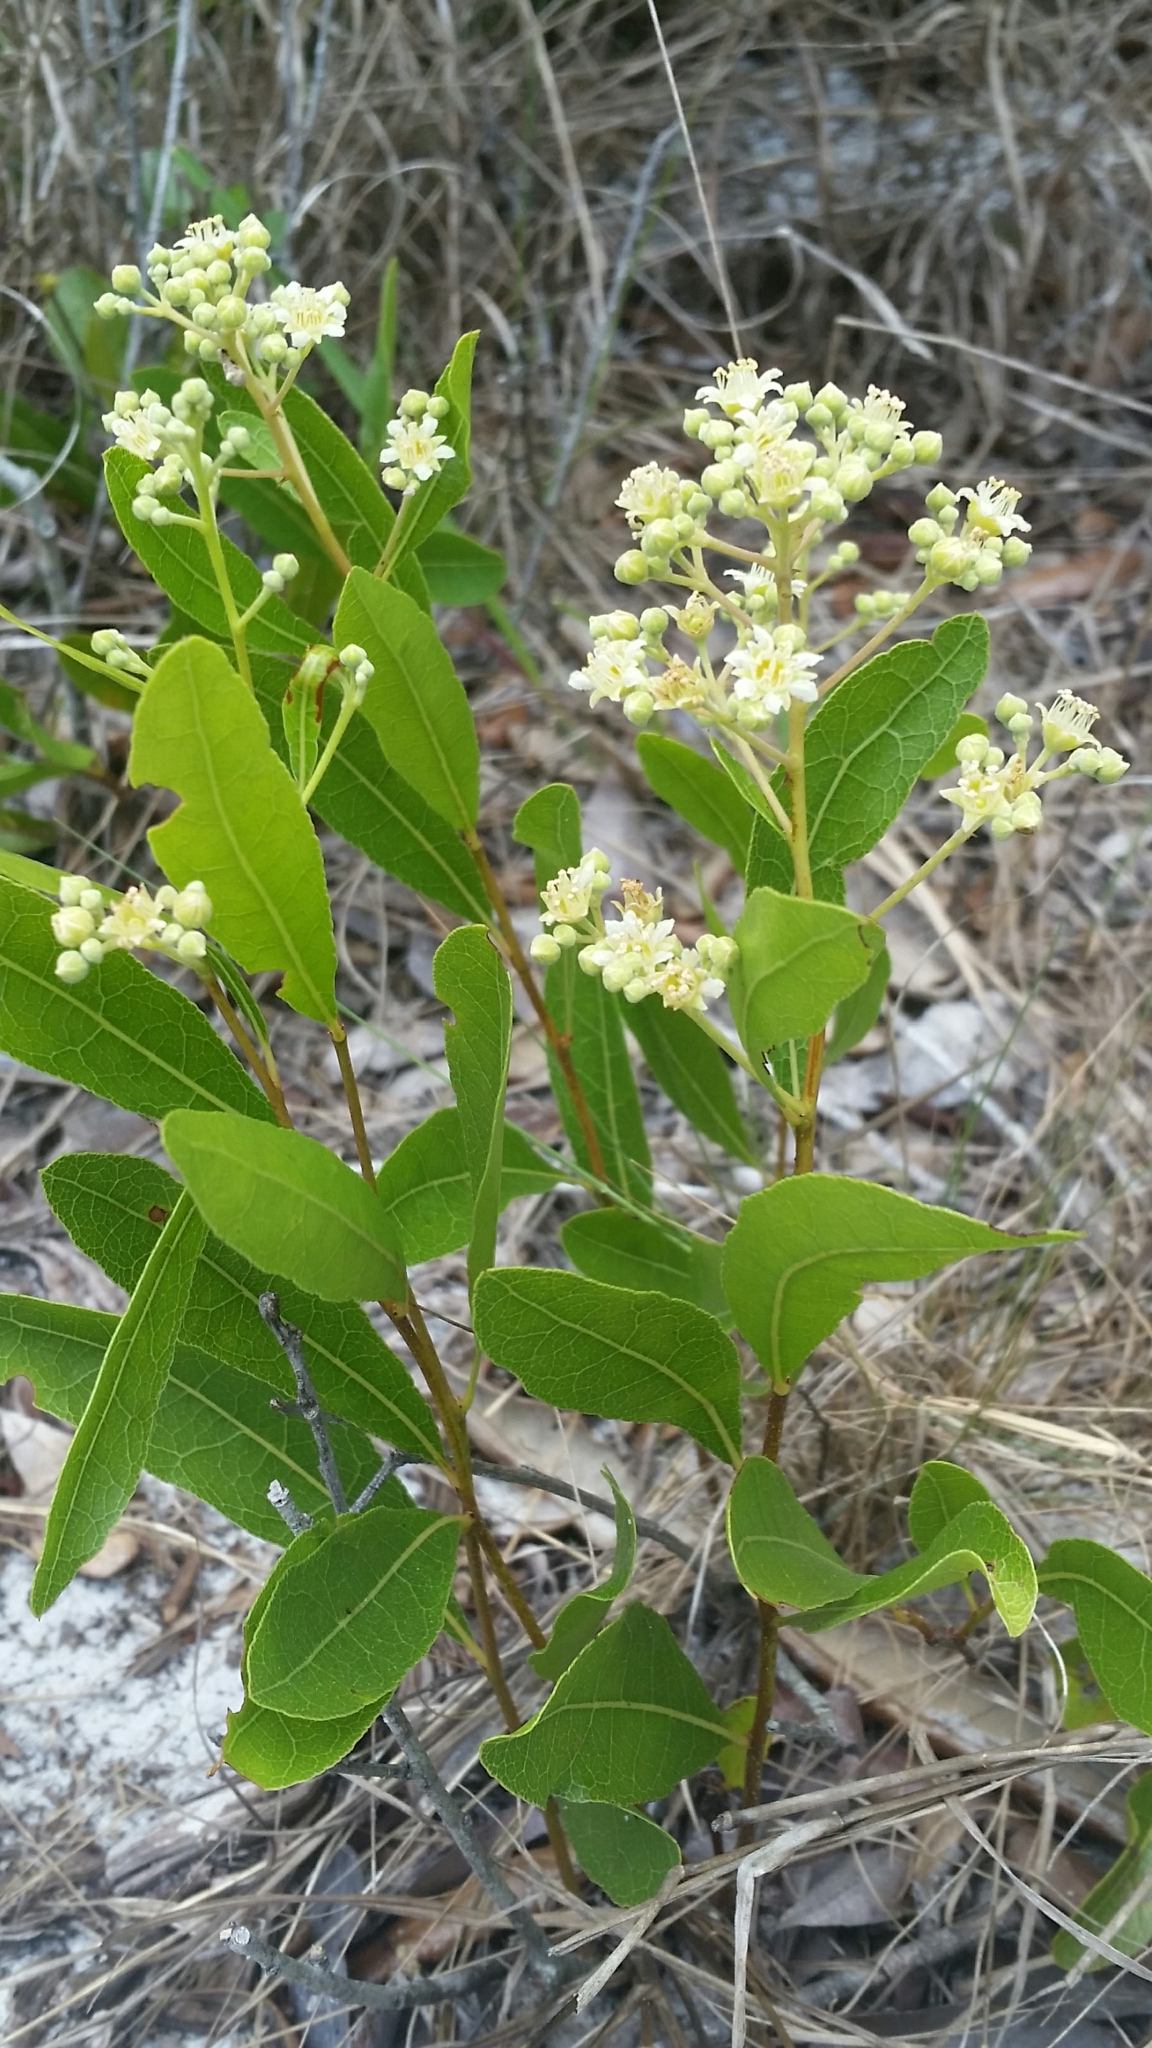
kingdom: Plantae
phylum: Tracheophyta
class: Magnoliopsida
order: Malpighiales
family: Chrysobalanaceae
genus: Geobalanus
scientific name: Geobalanus oblongifolius
